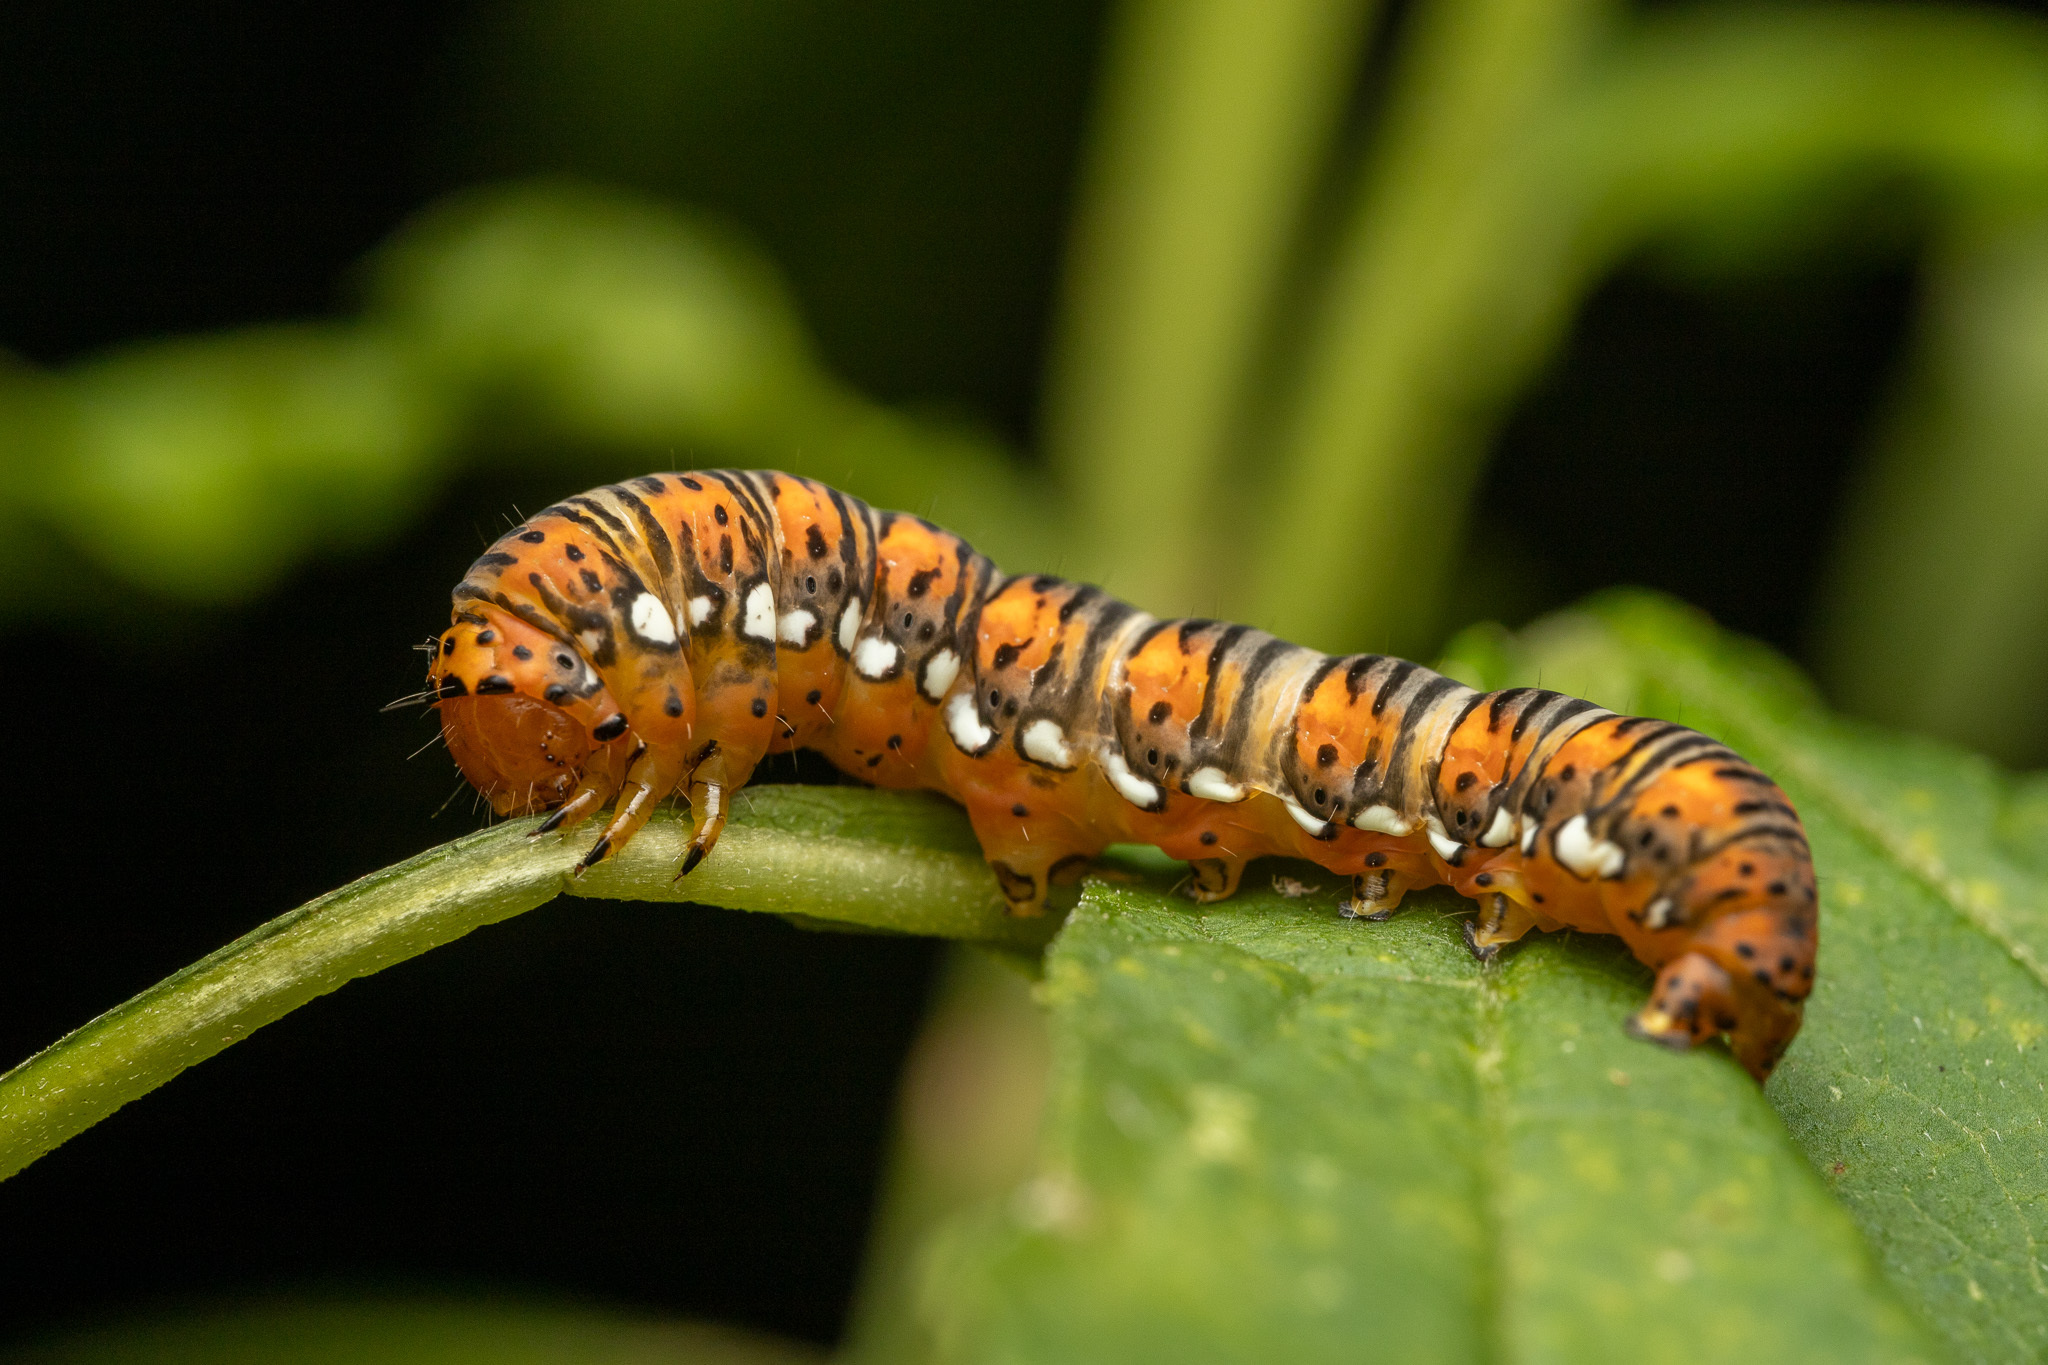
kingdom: Animalia
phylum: Arthropoda
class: Insecta
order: Lepidoptera
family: Noctuidae
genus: Basilodes
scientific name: Basilodes pepita
